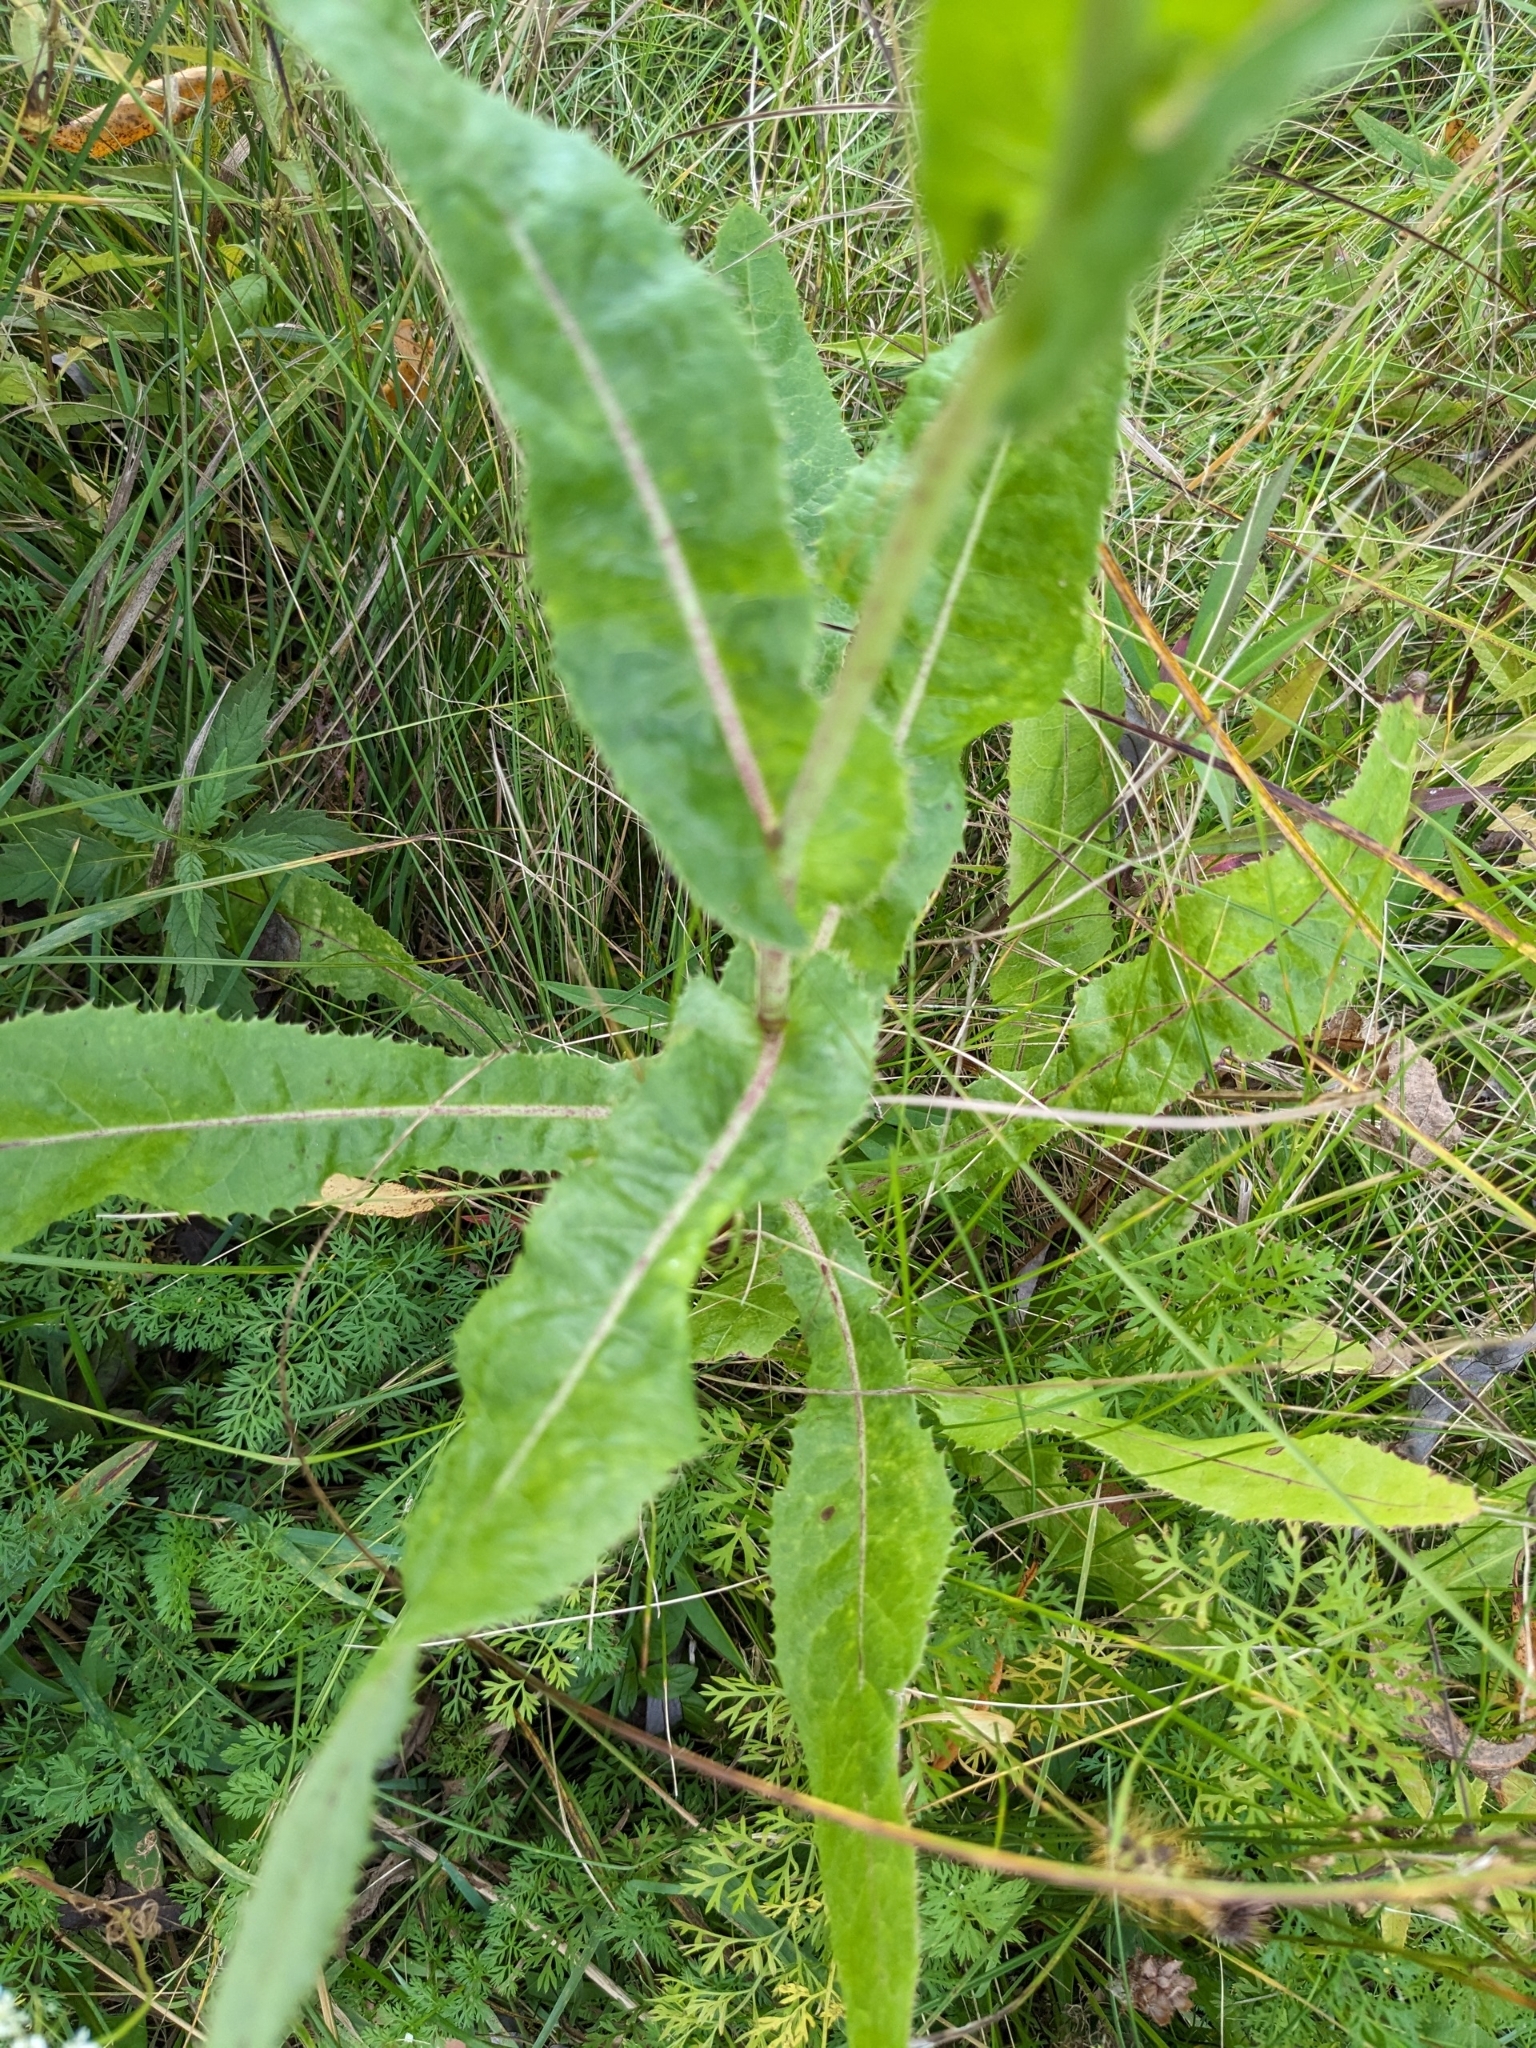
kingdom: Plantae
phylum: Tracheophyta
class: Magnoliopsida
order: Asterales
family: Asteraceae
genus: Sonchus
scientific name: Sonchus arvensis
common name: Perennial sow-thistle
